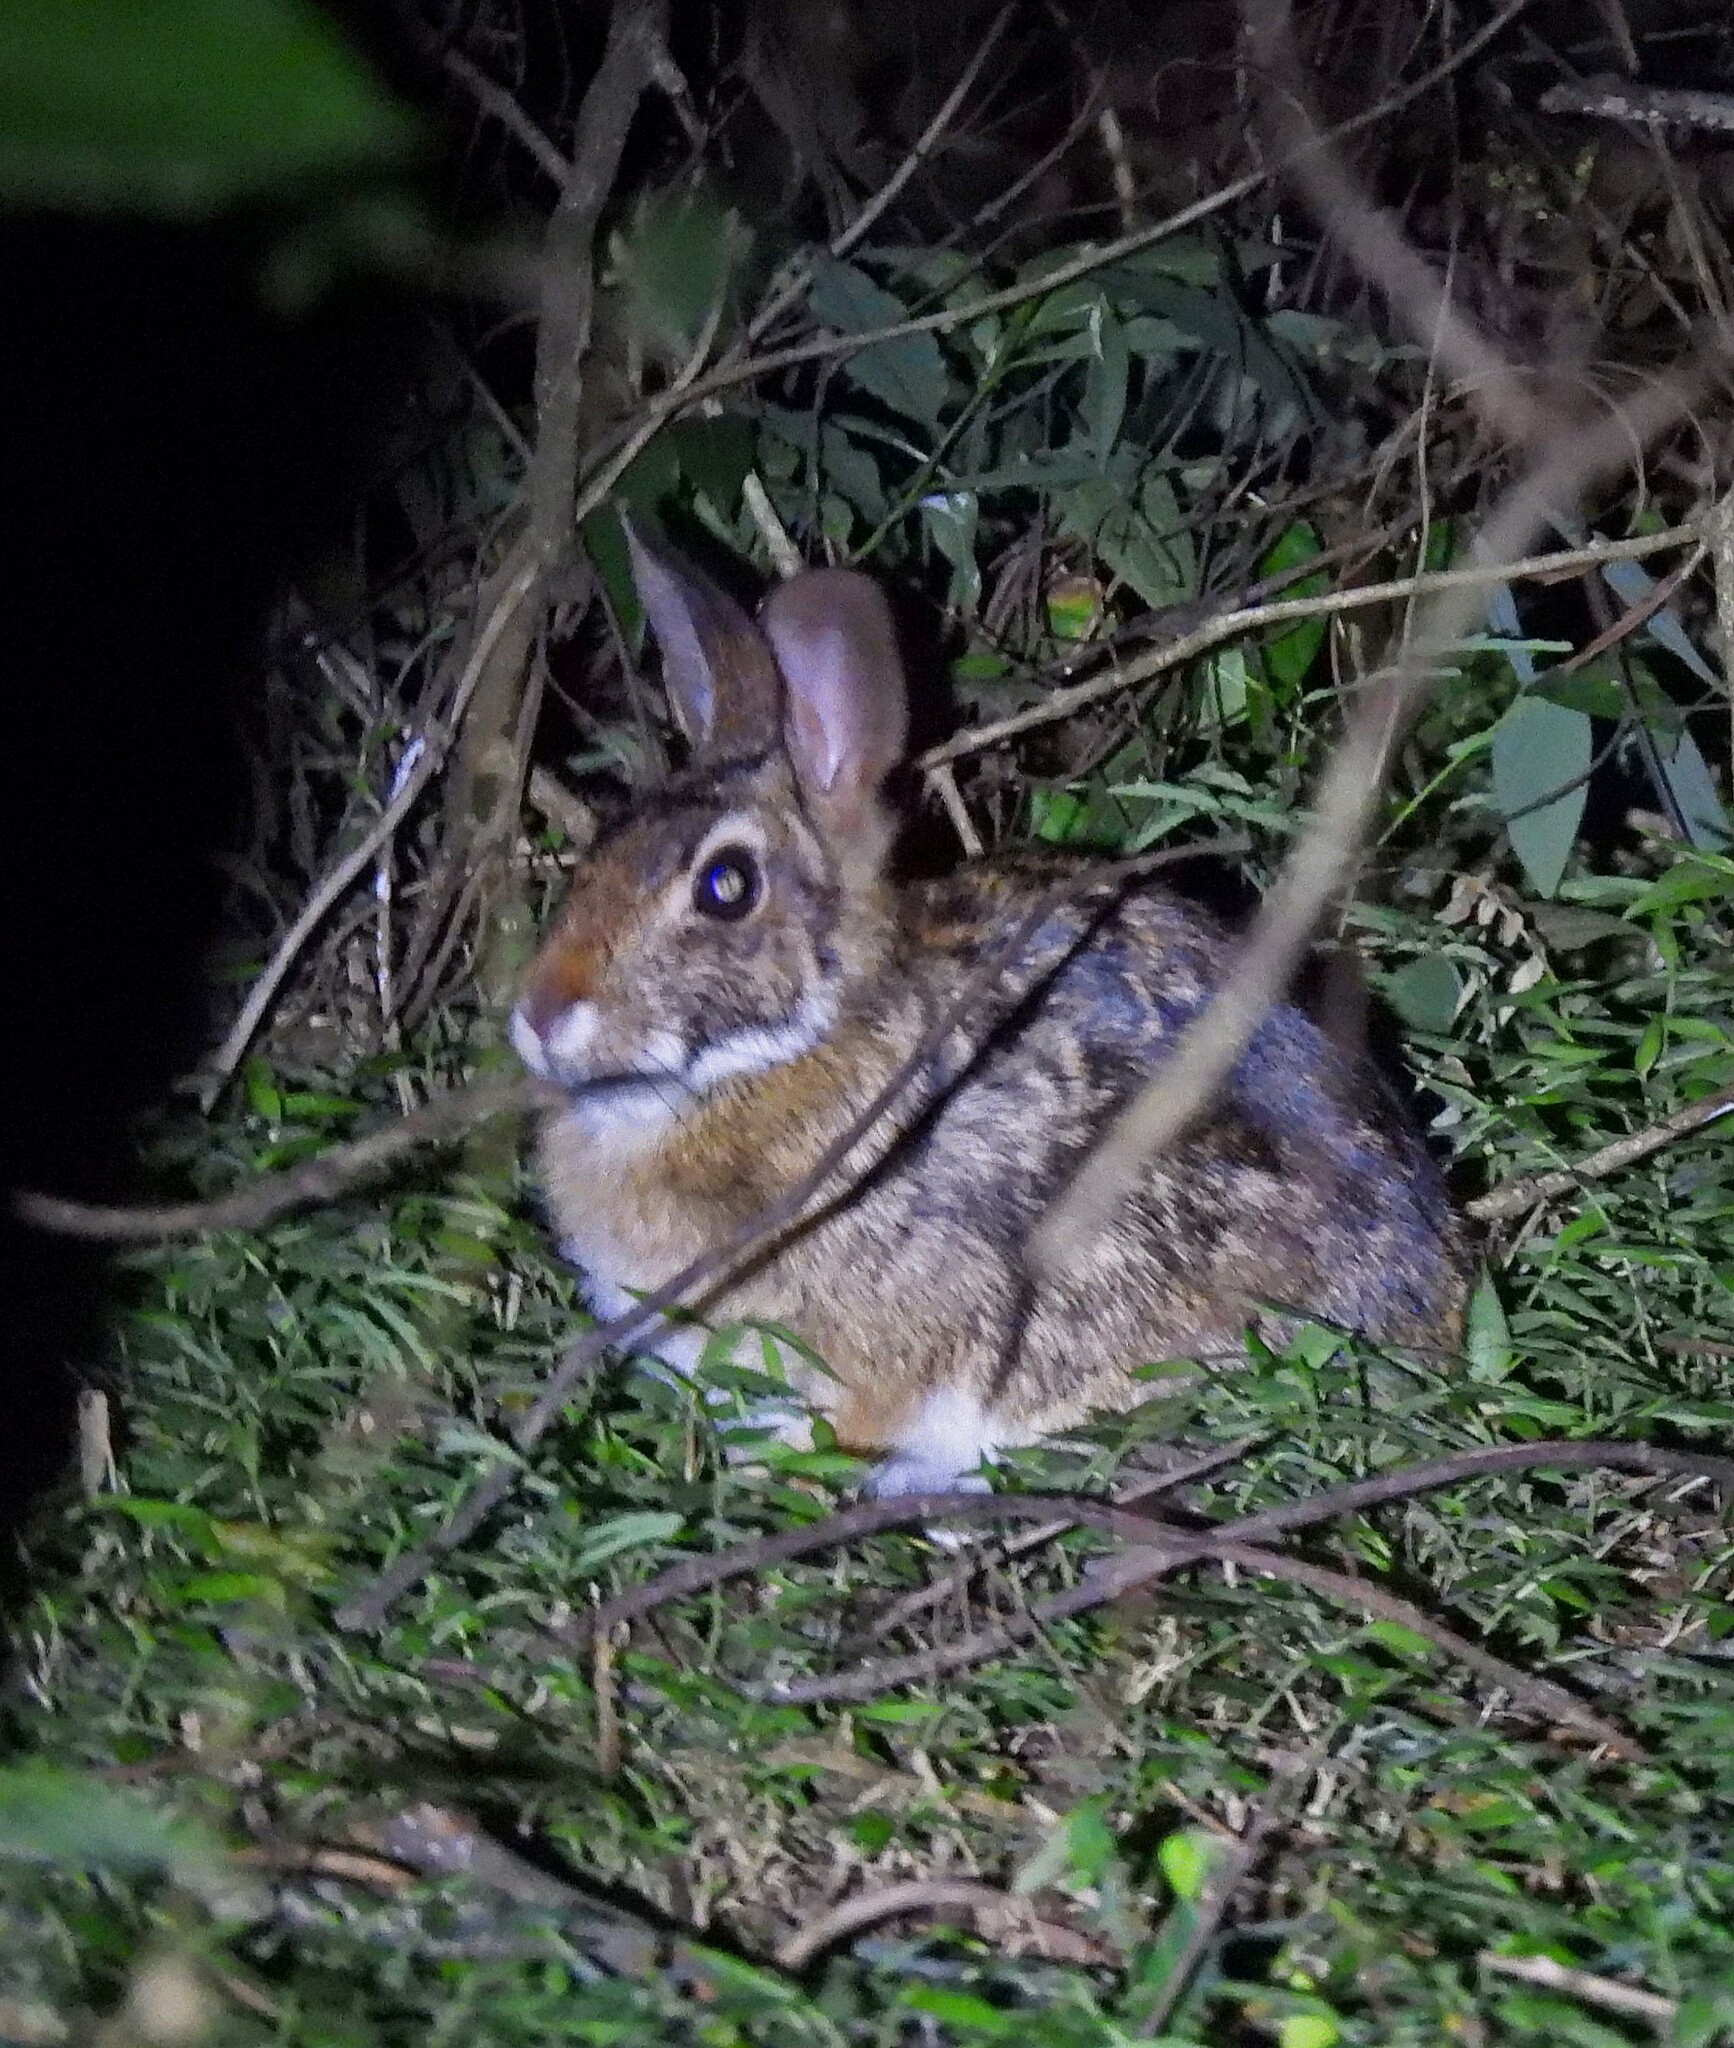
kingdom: Animalia
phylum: Chordata
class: Mammalia
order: Lagomorpha
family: Leporidae
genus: Sylvilagus
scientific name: Sylvilagus brasiliensis
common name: Tapeti
